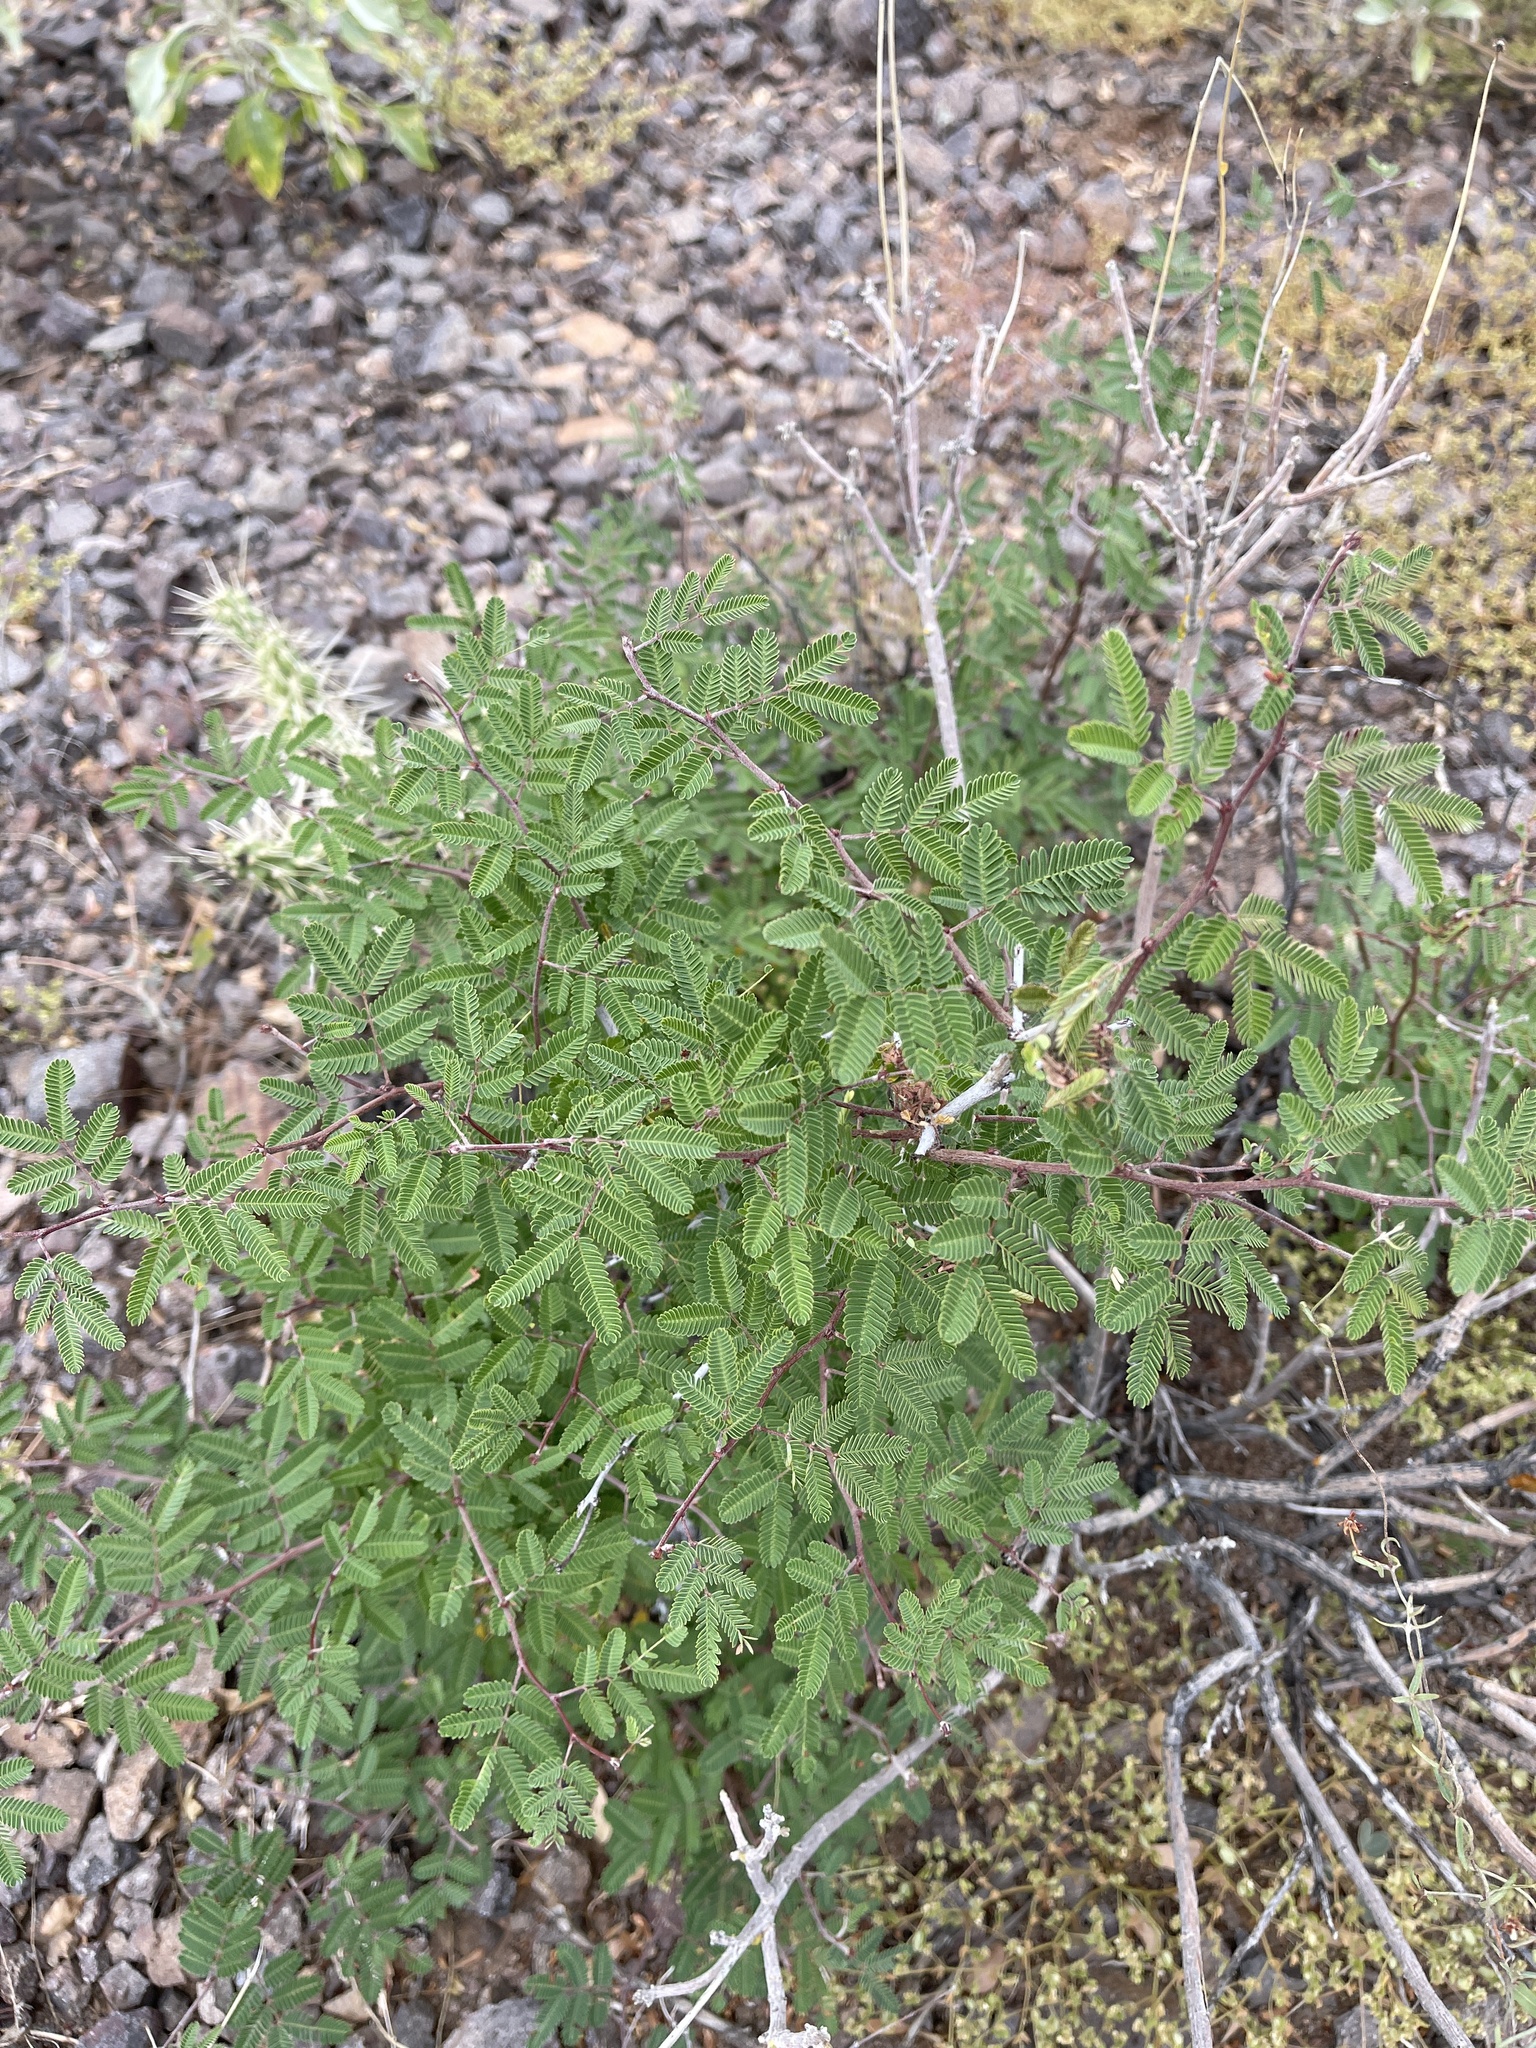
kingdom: Plantae
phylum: Tracheophyta
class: Magnoliopsida
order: Fabales
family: Fabaceae
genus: Calliandra
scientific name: Calliandra eriophylla
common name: Fairy-duster
